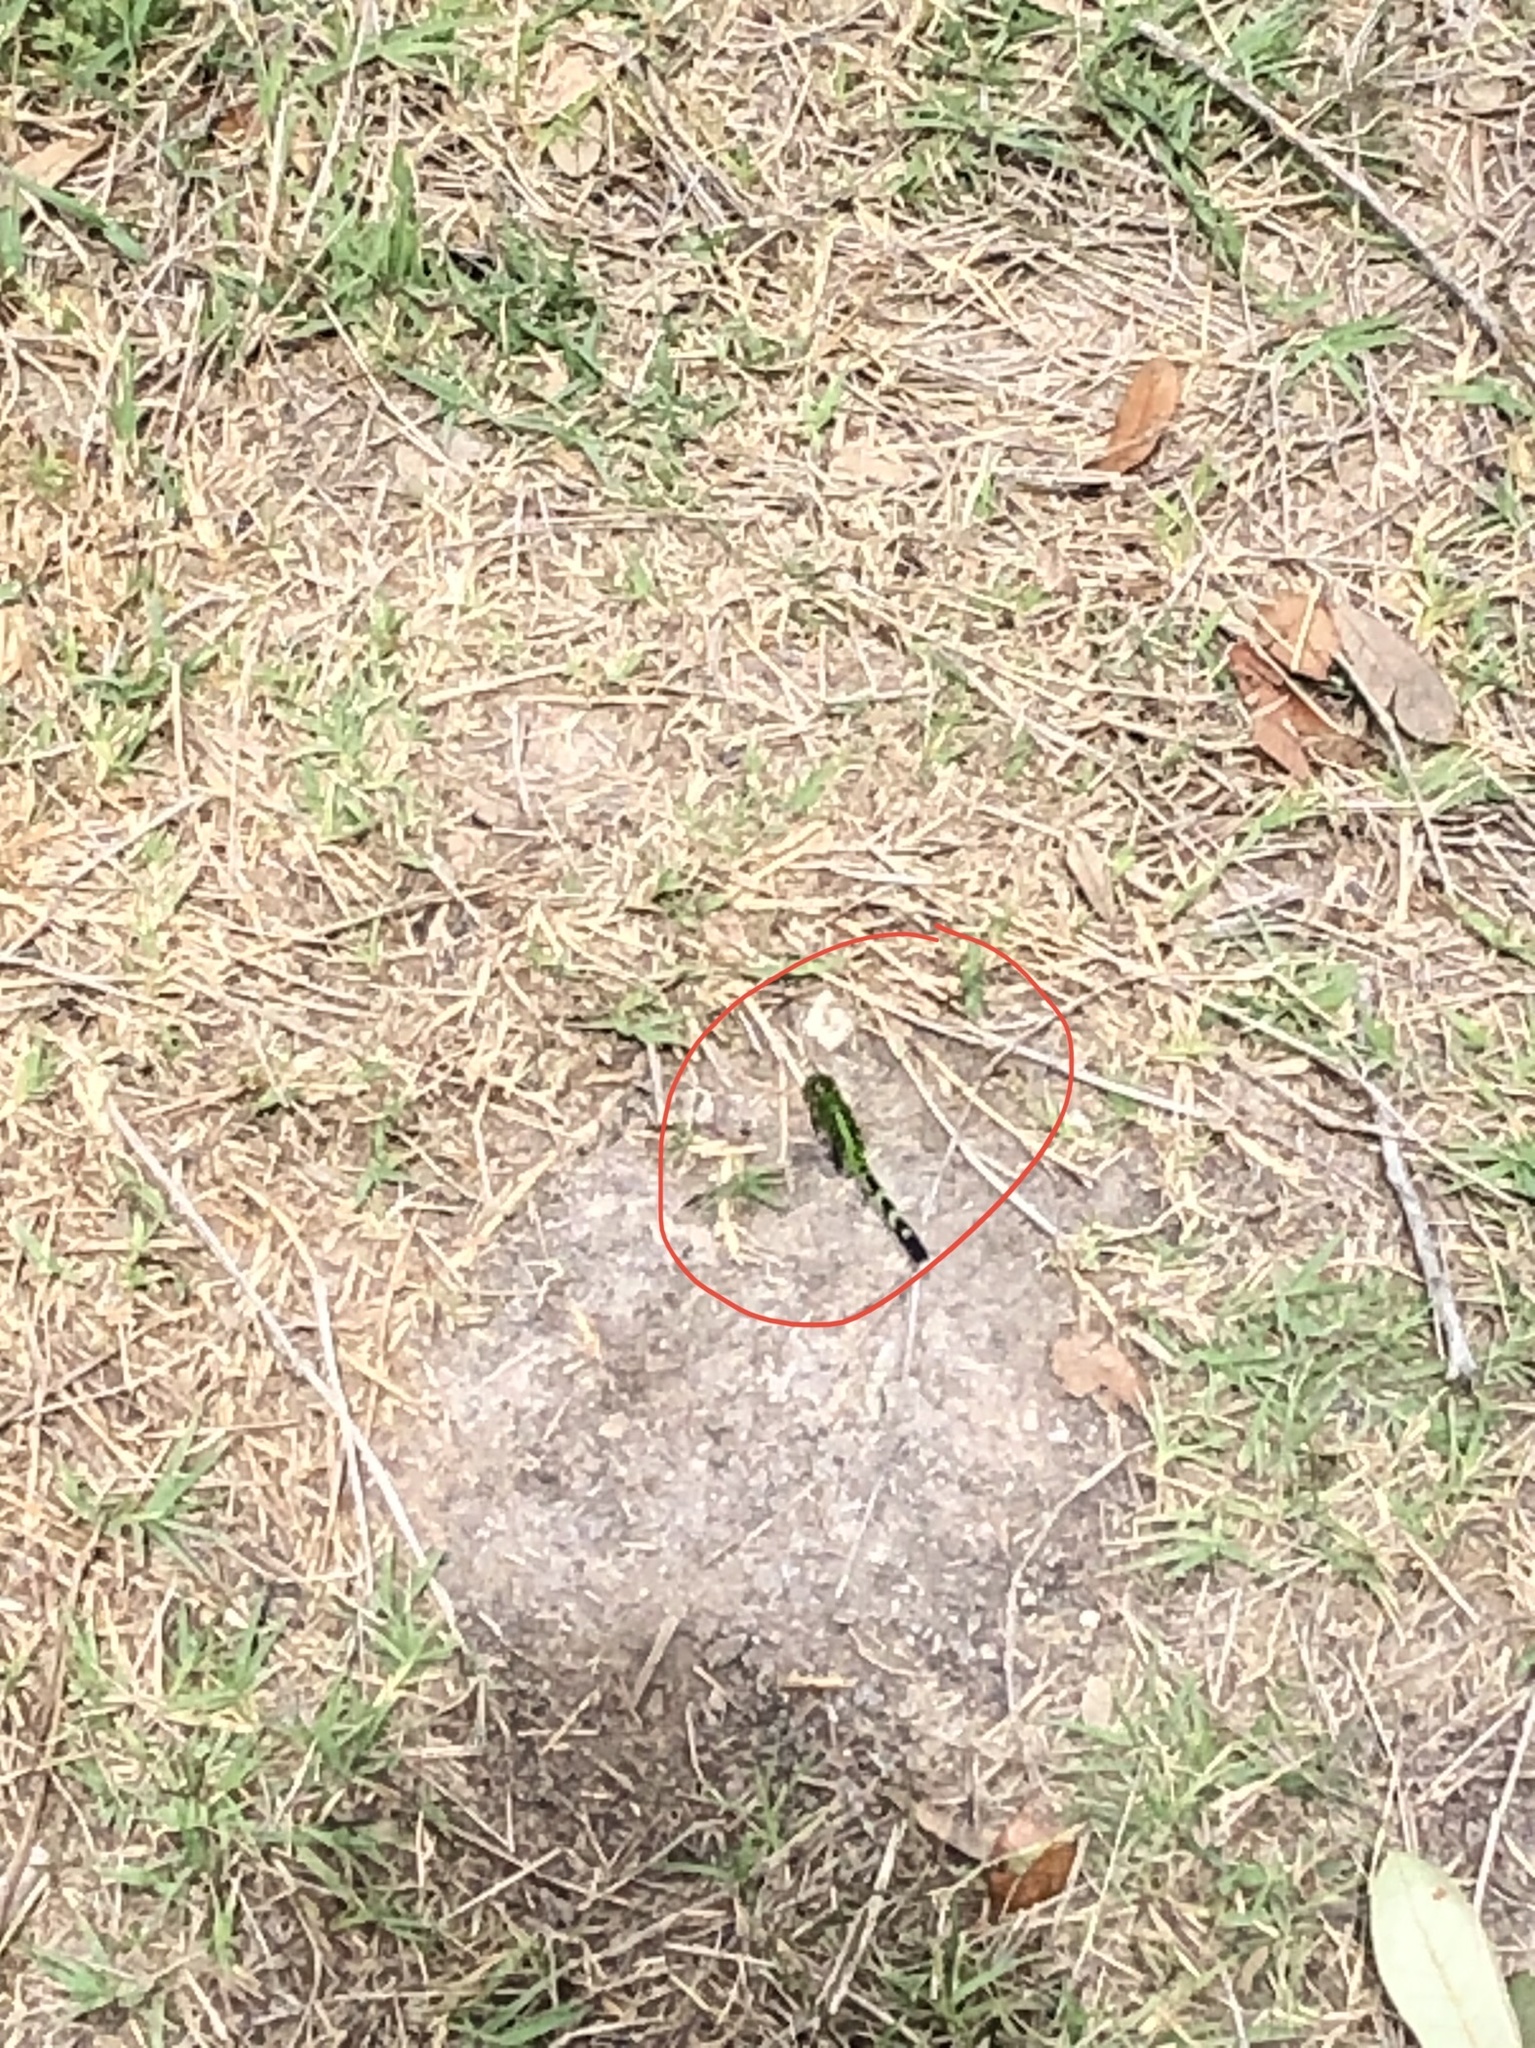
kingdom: Animalia
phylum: Arthropoda
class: Insecta
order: Odonata
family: Libellulidae
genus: Erythemis
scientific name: Erythemis simplicicollis
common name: Eastern pondhawk
